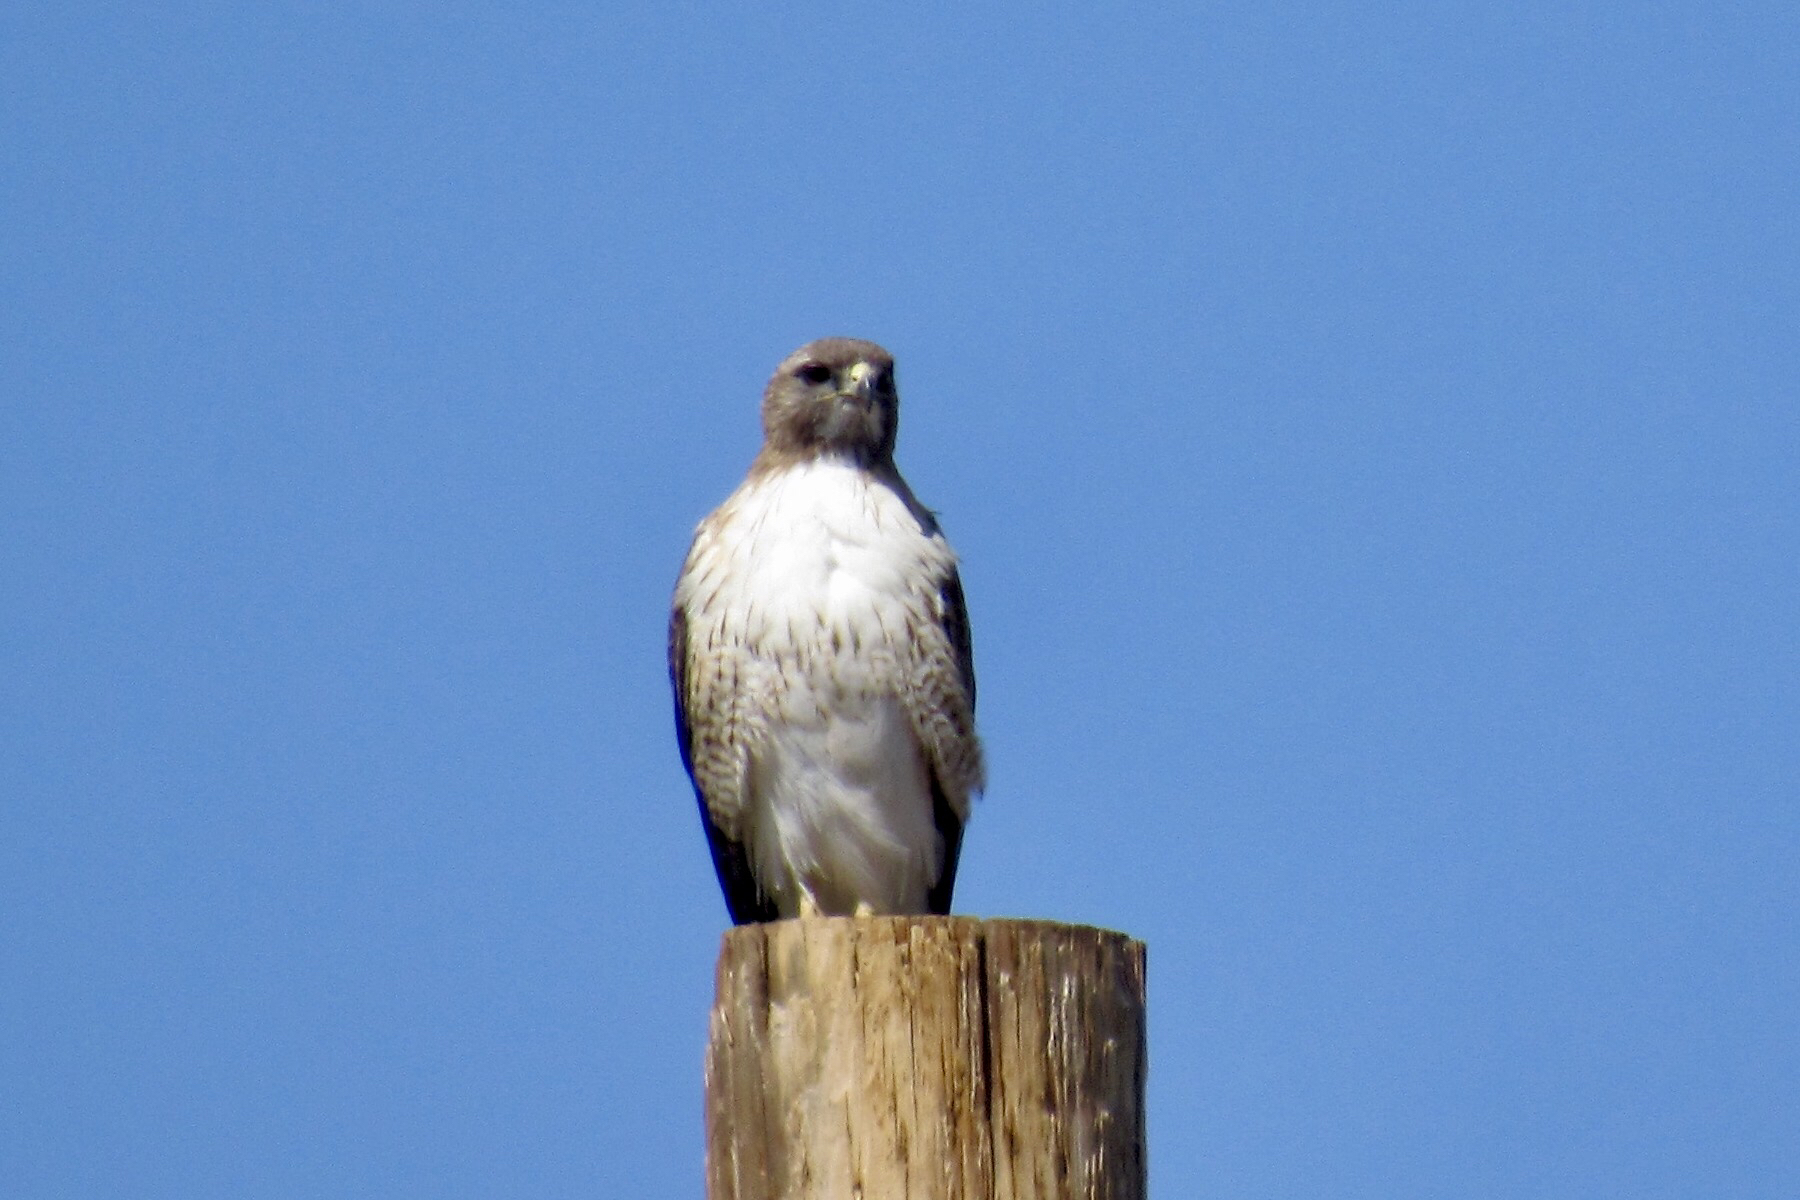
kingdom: Animalia
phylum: Chordata
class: Aves
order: Accipitriformes
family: Accipitridae
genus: Buteo
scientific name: Buteo jamaicensis
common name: Red-tailed hawk
